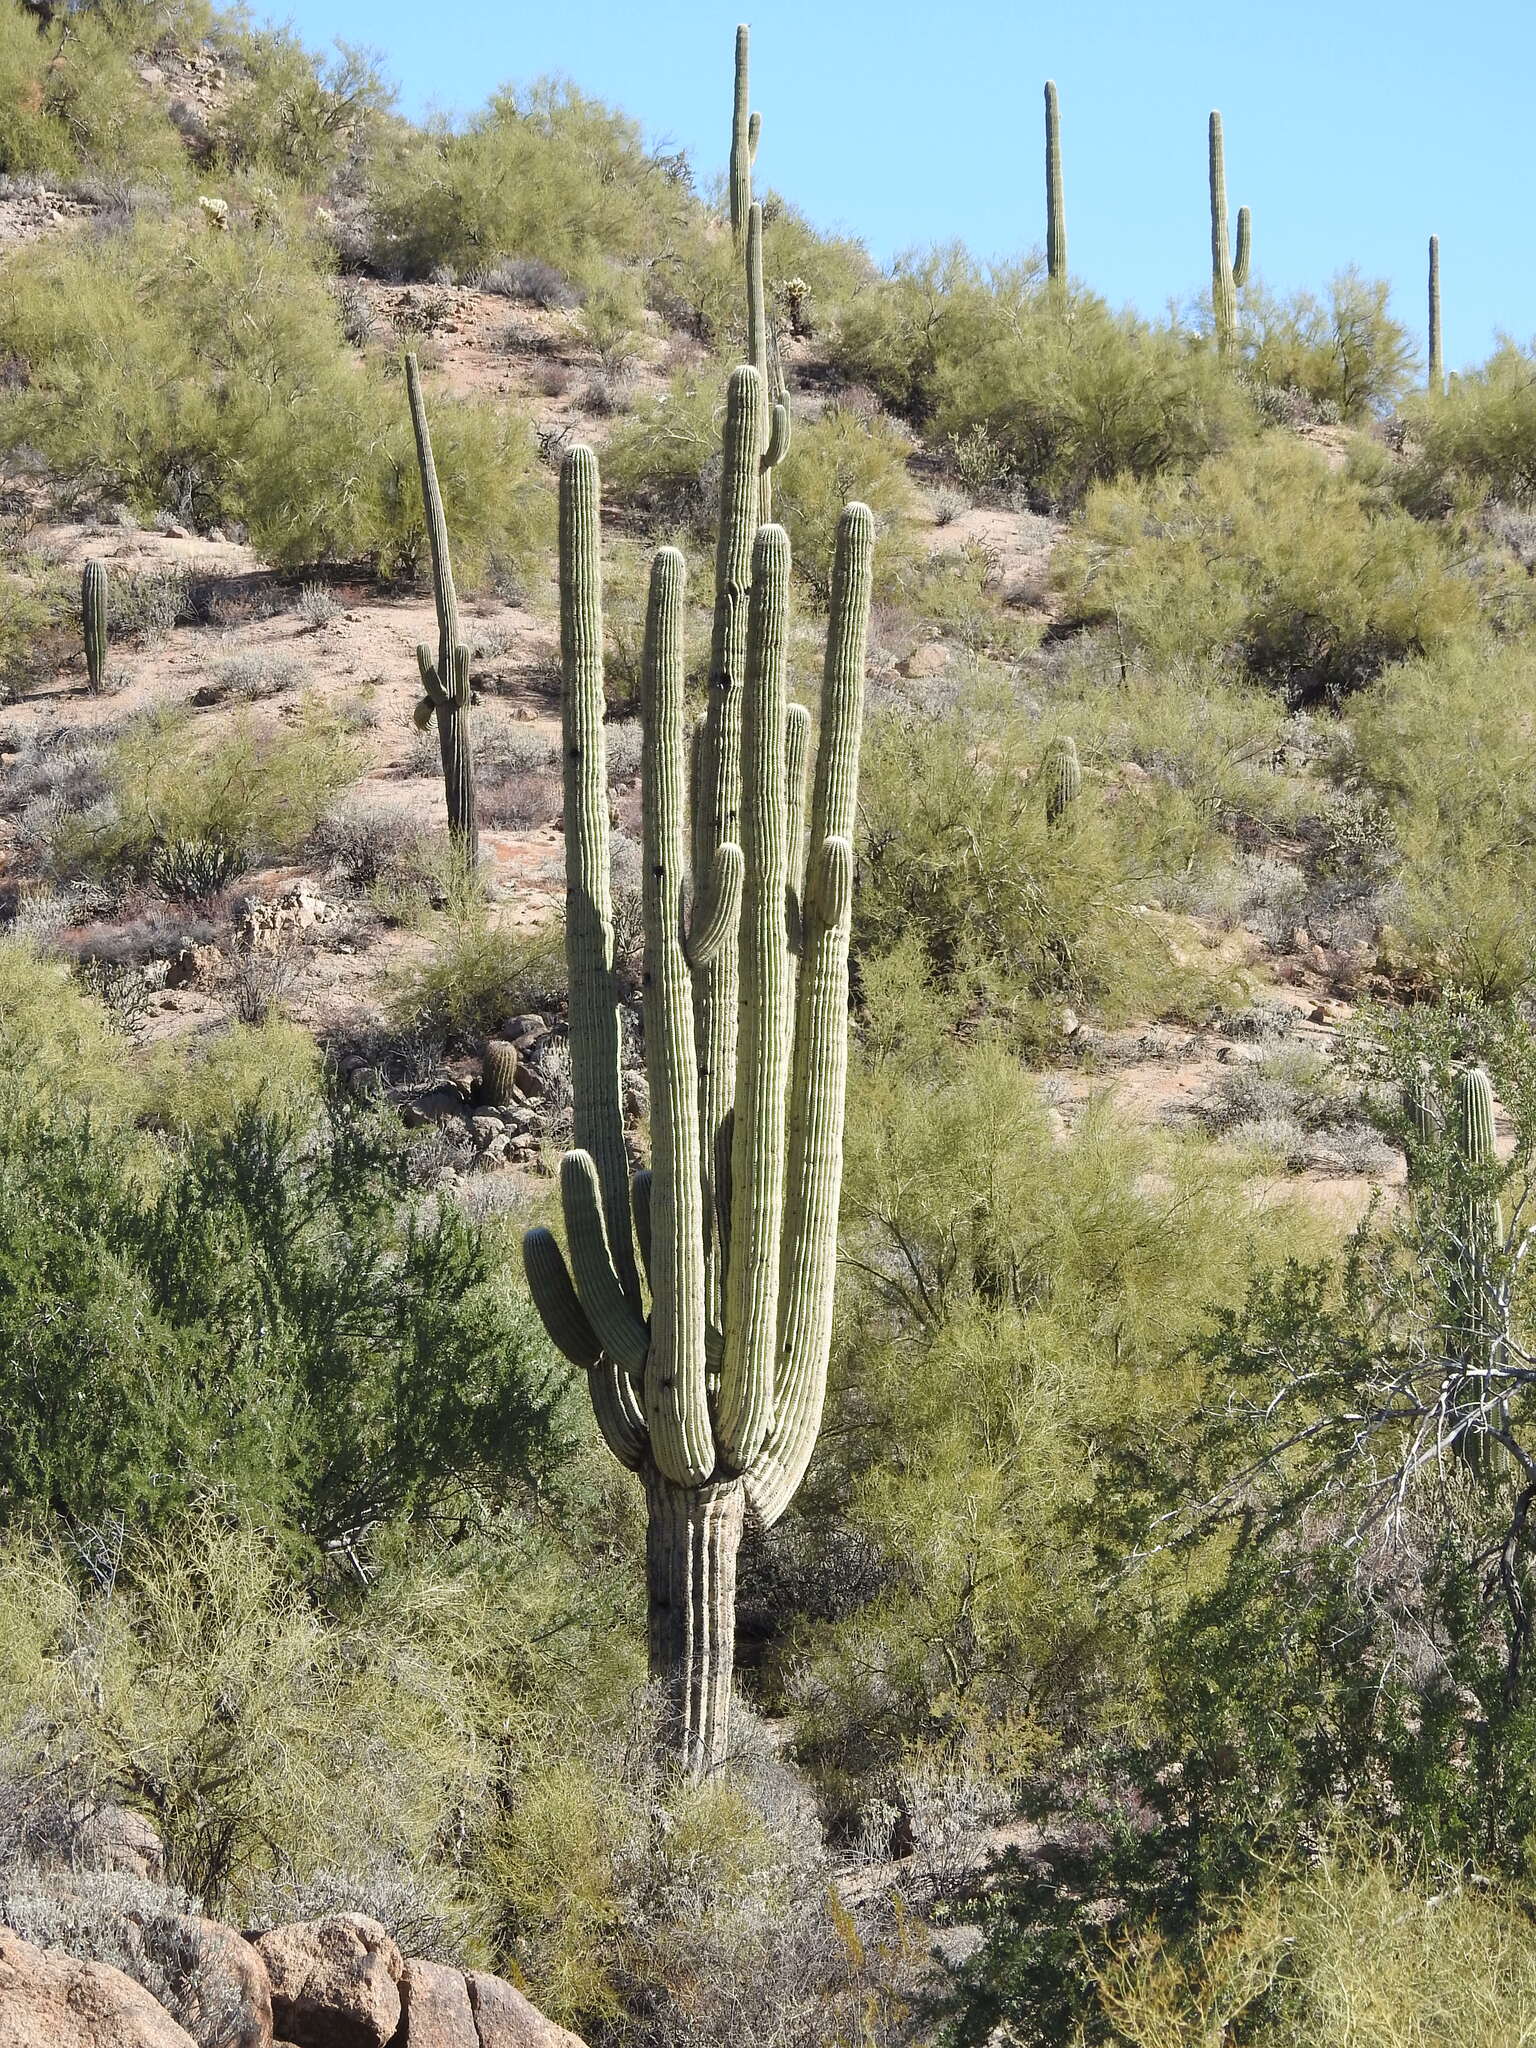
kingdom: Plantae
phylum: Tracheophyta
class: Magnoliopsida
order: Caryophyllales
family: Cactaceae
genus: Carnegiea
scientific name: Carnegiea gigantea
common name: Saguaro
